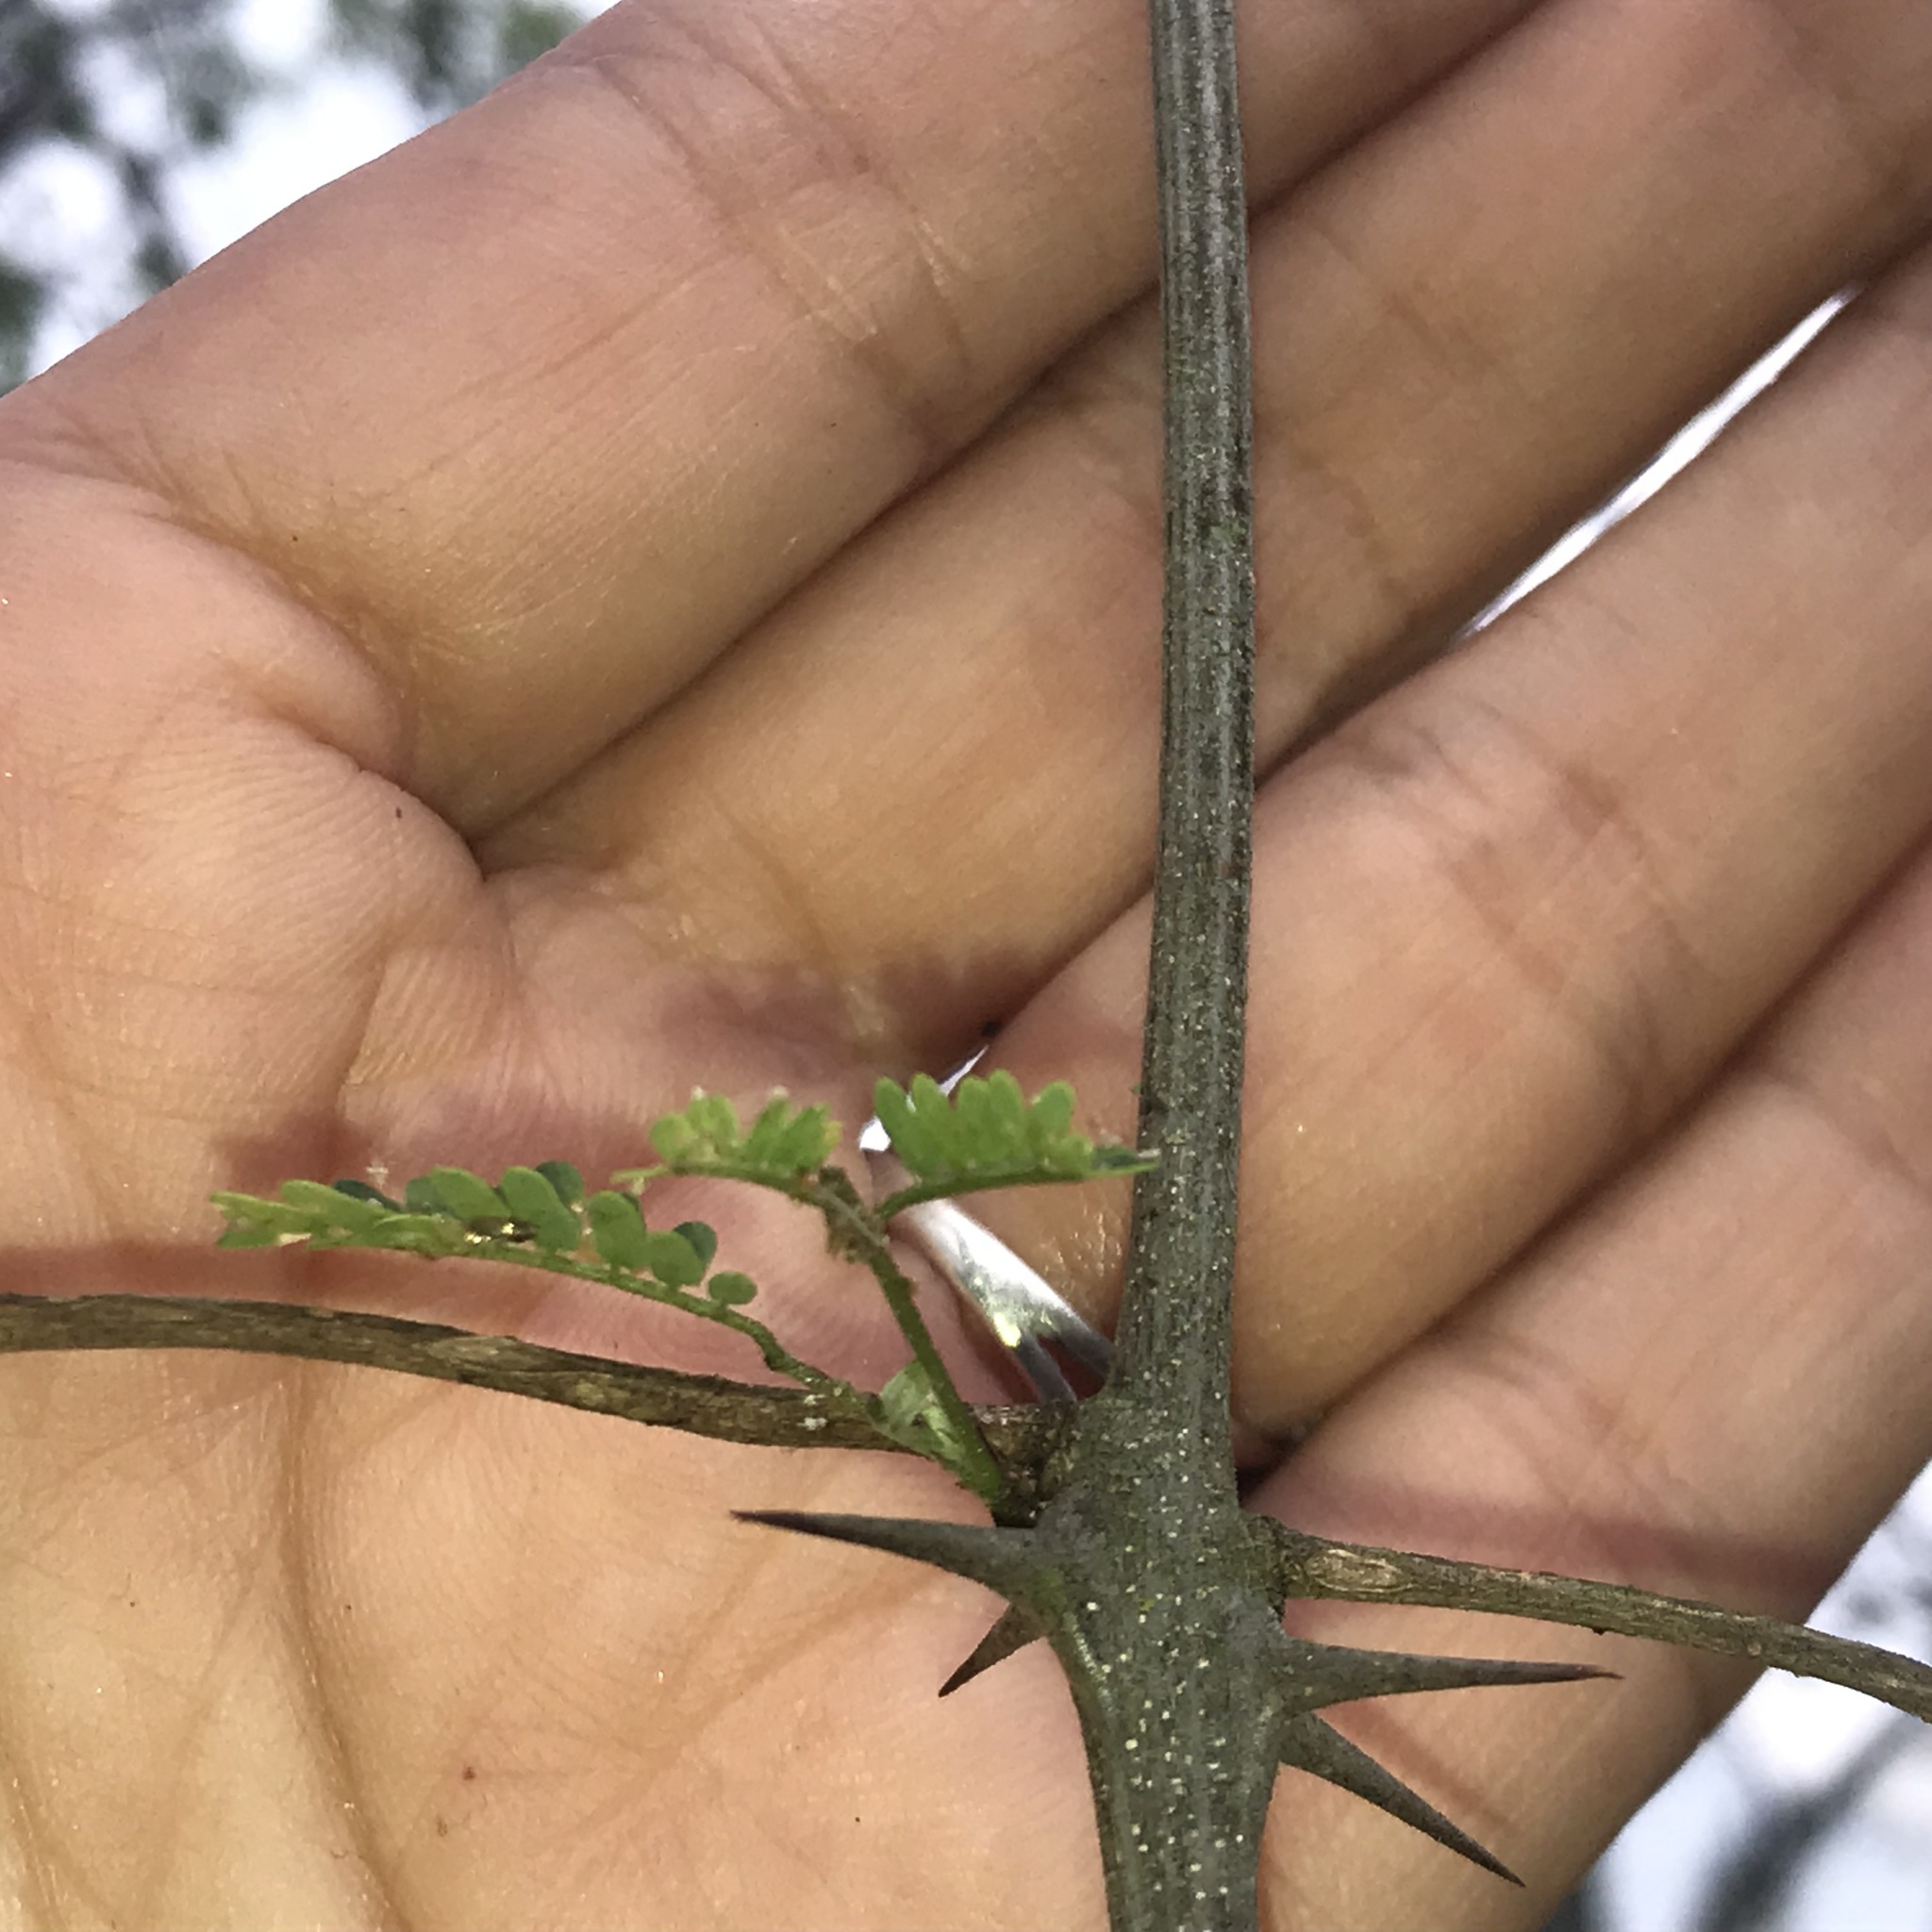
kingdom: Plantae
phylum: Tracheophyta
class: Magnoliopsida
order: Fabales
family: Fabaceae
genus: Havardia
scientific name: Havardia pallens
